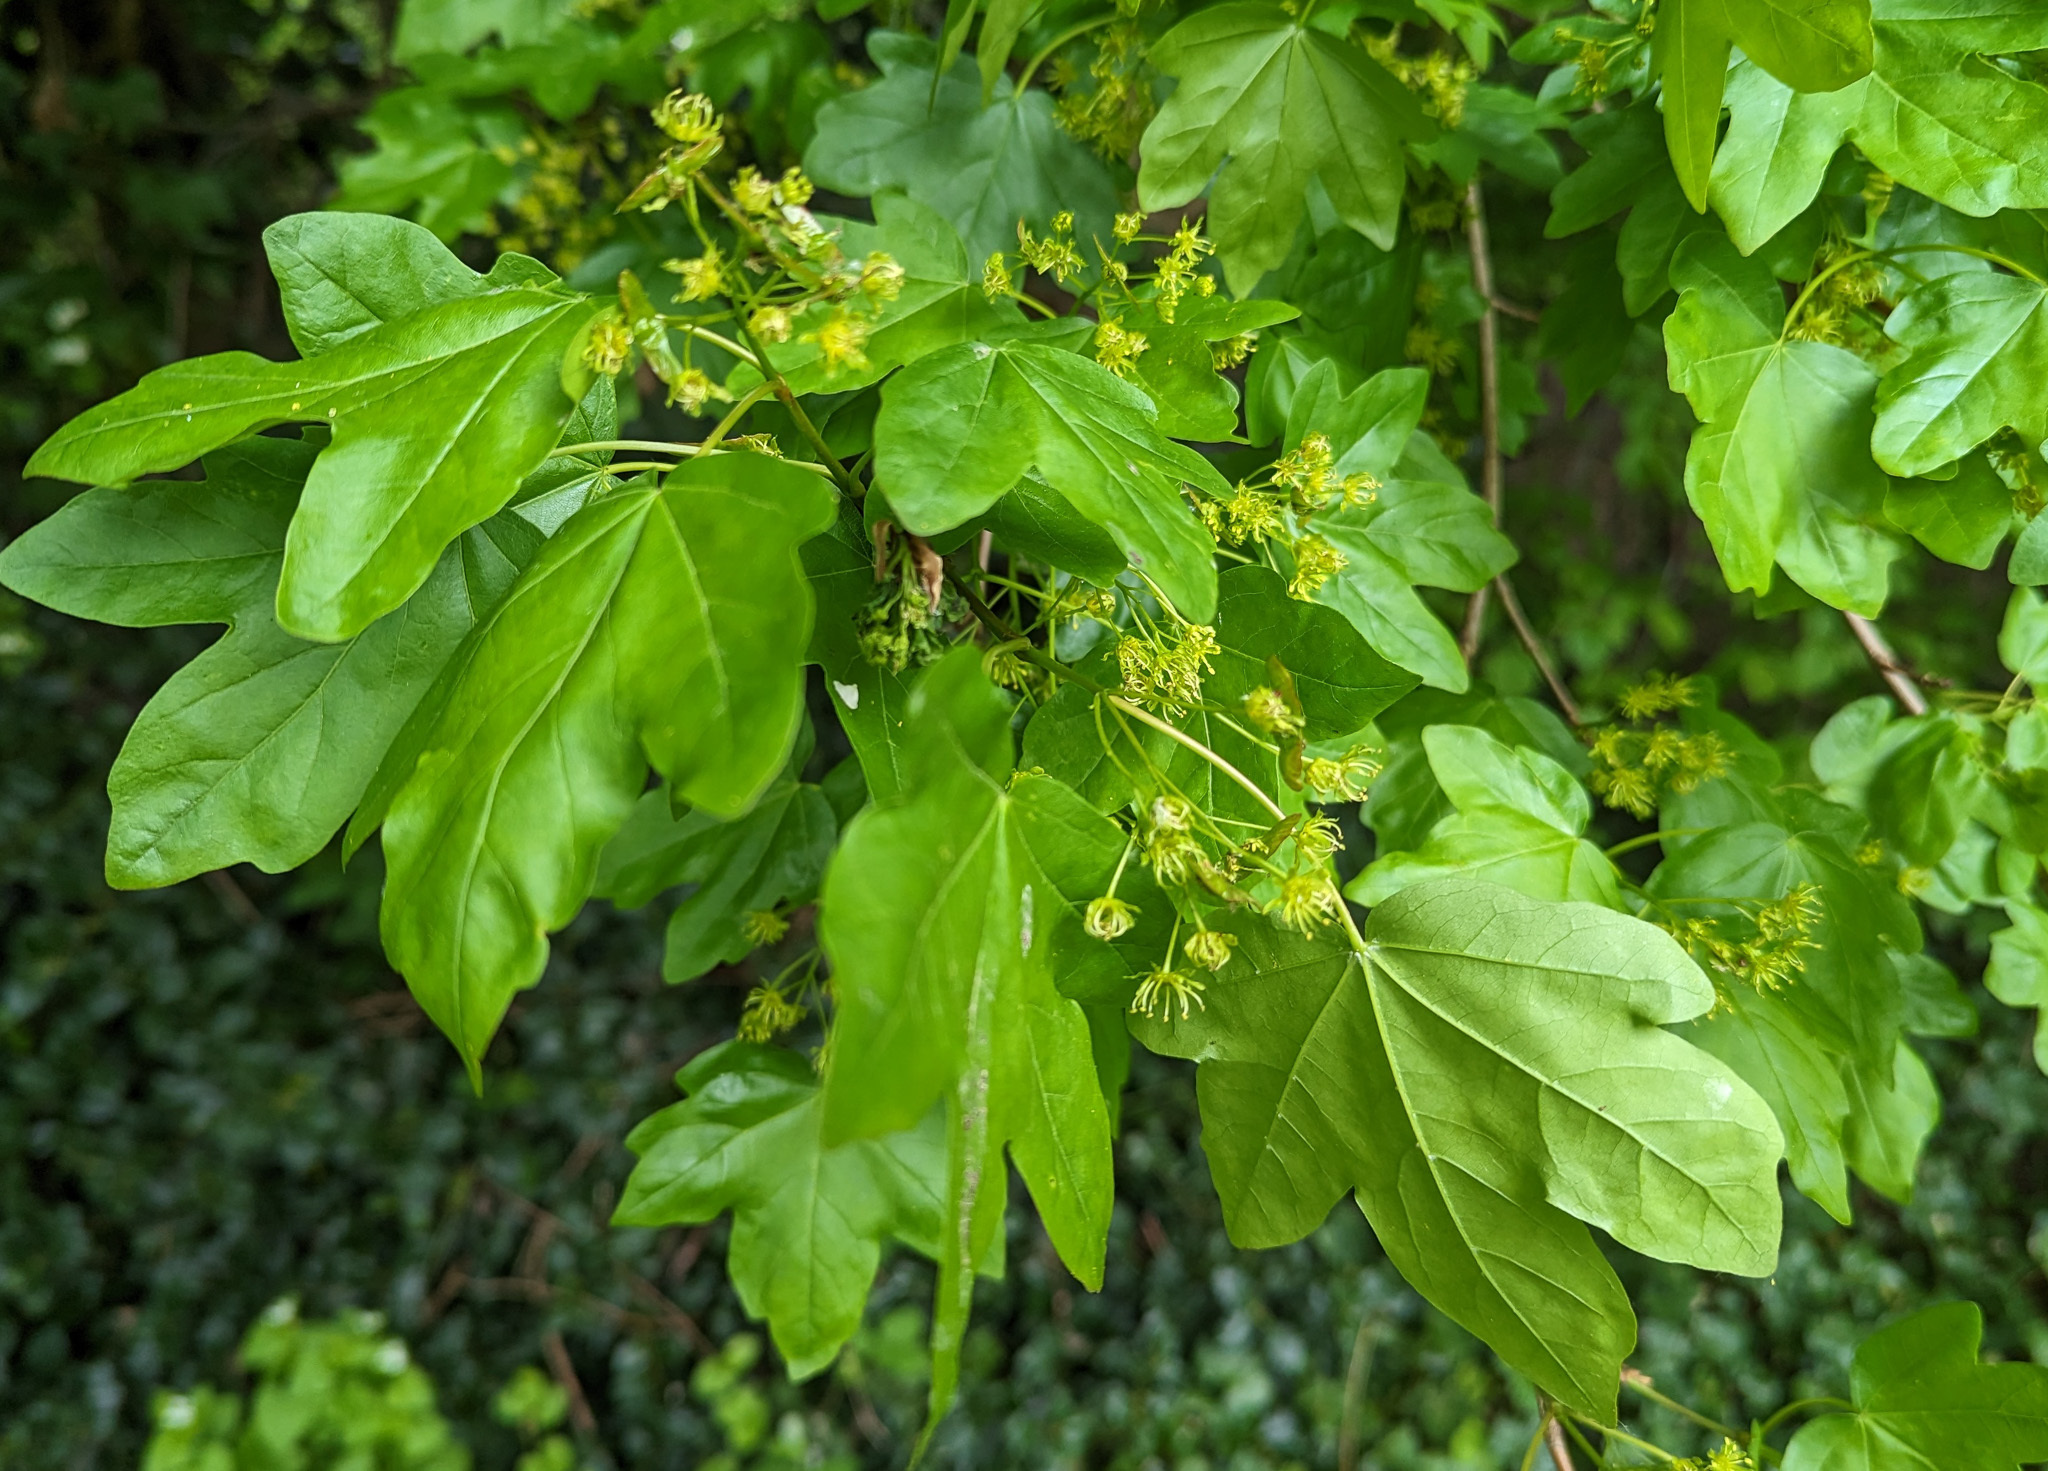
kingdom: Plantae
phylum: Tracheophyta
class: Magnoliopsida
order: Sapindales
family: Sapindaceae
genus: Acer
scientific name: Acer campestre
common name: Field maple
